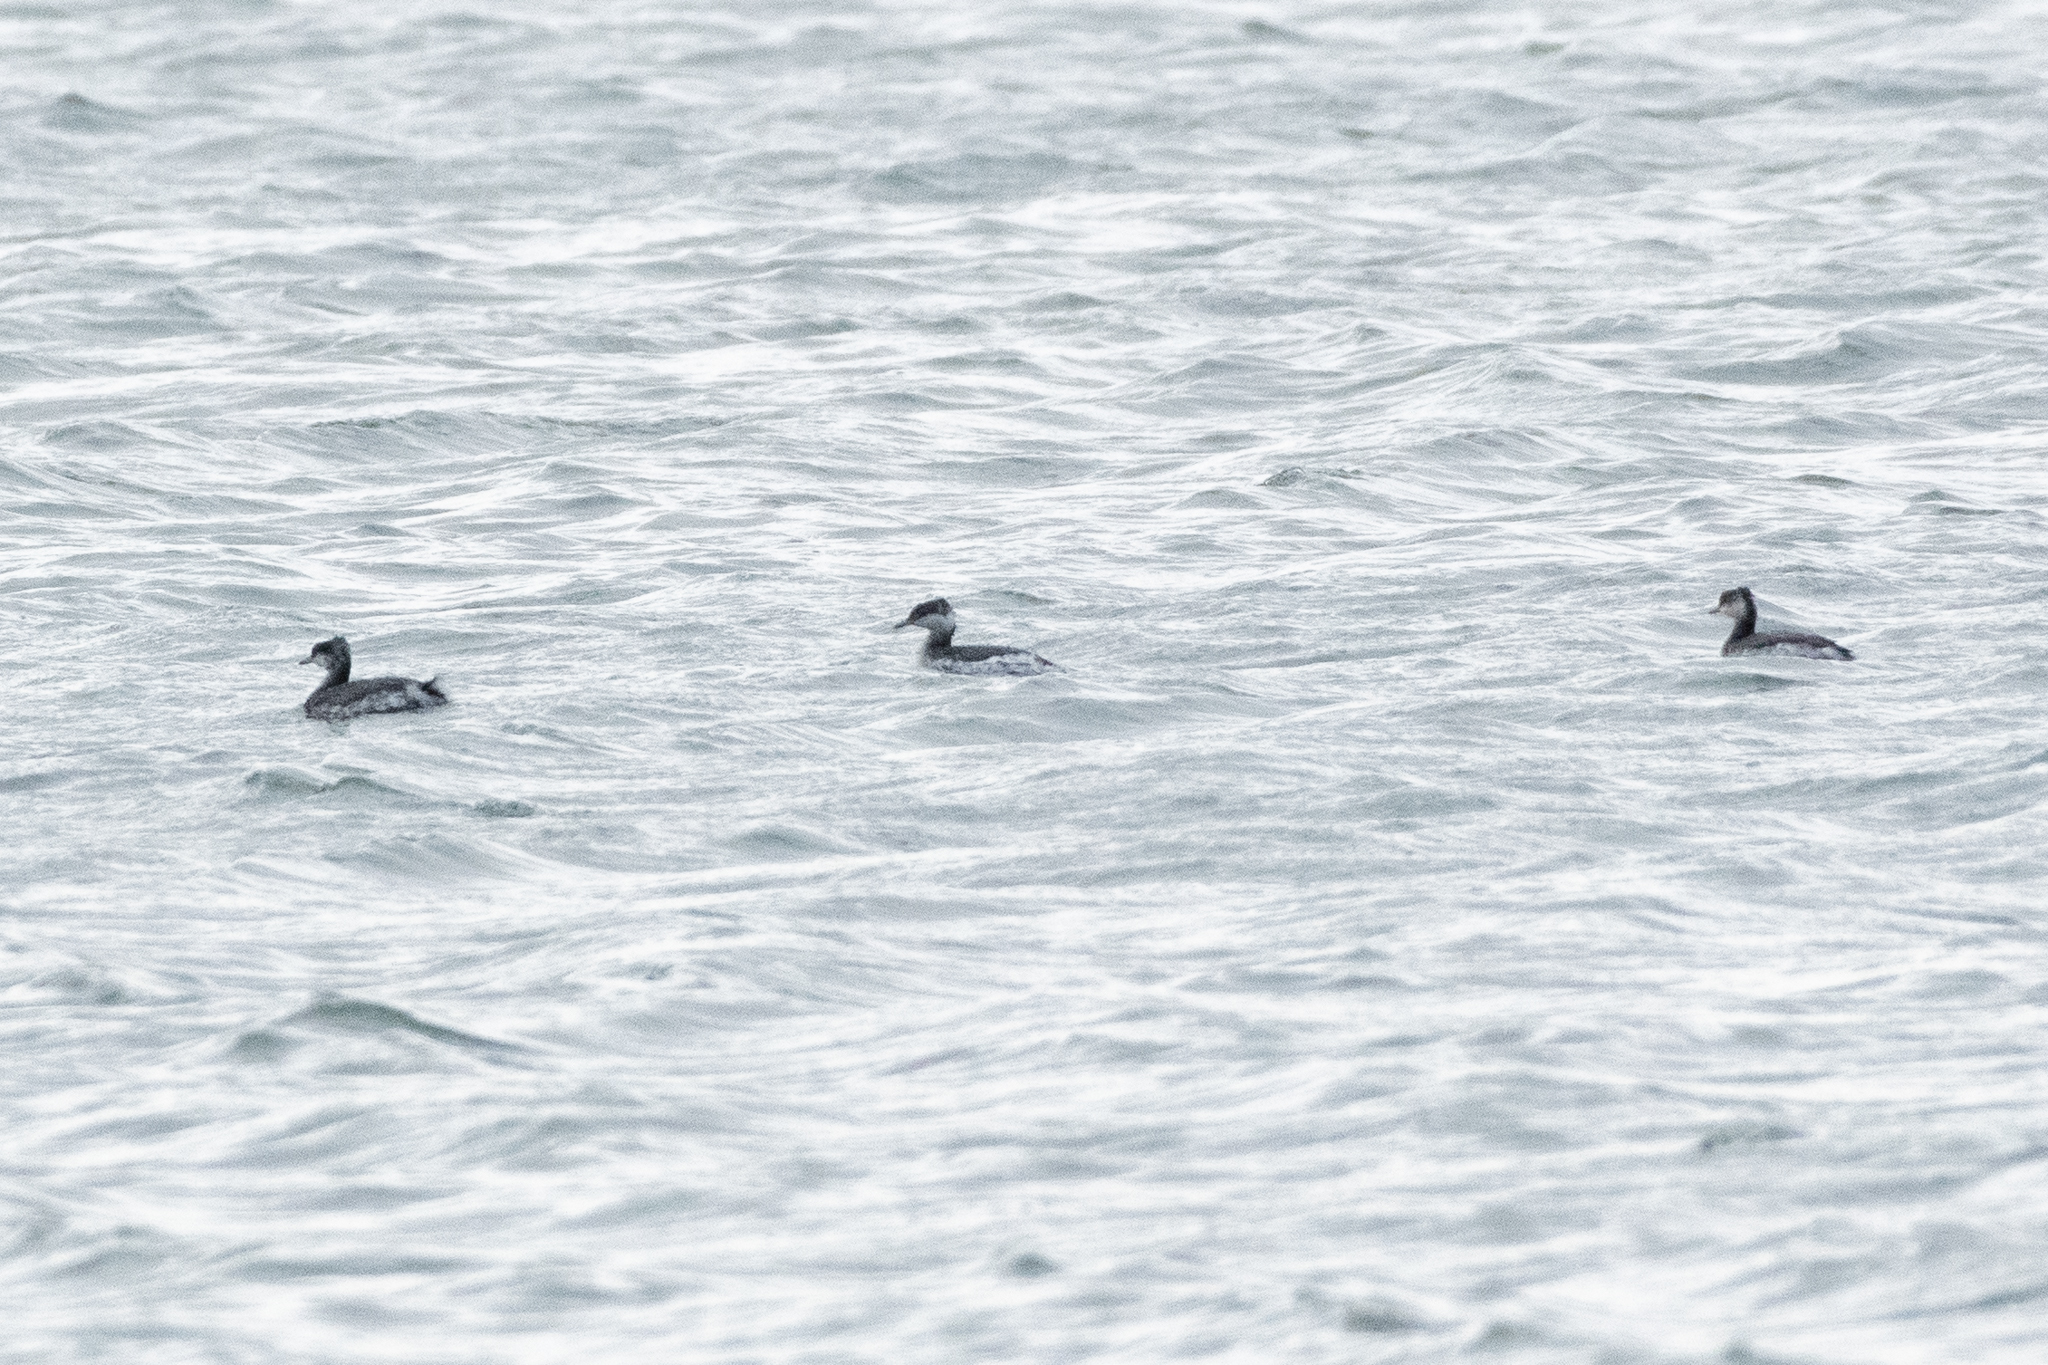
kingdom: Animalia
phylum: Chordata
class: Aves
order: Podicipediformes
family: Podicipedidae
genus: Podiceps
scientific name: Podiceps auritus
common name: Horned grebe
